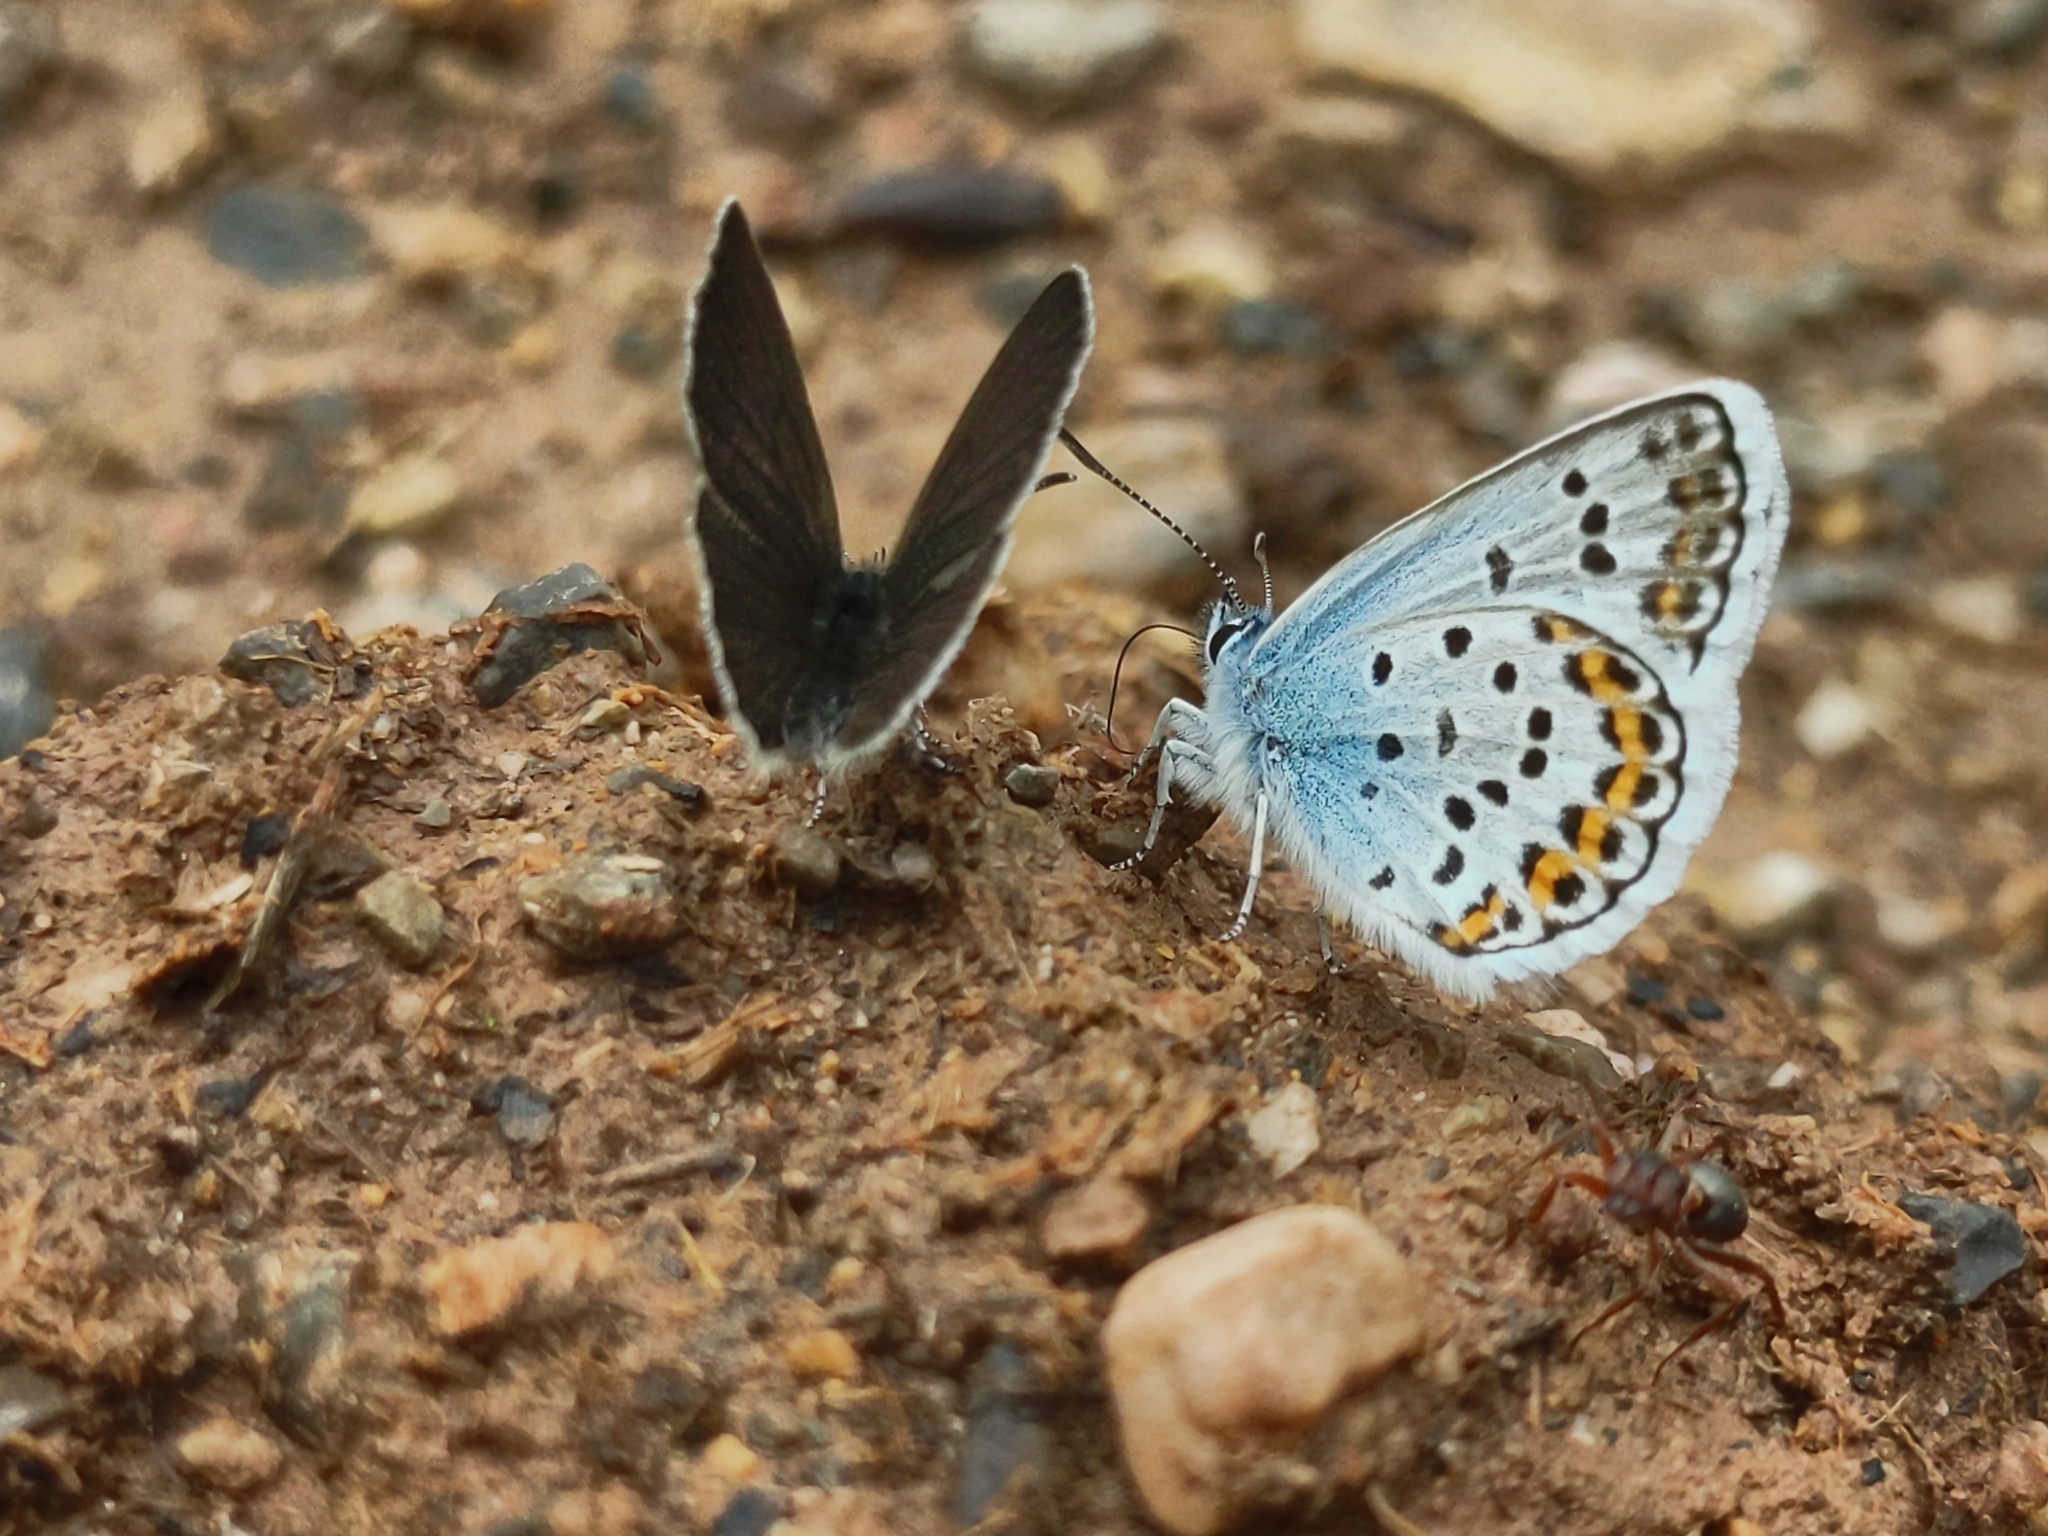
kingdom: Animalia
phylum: Arthropoda
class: Insecta
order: Lepidoptera
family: Lycaenidae
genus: Plebejus
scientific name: Plebejus argus
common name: Silver-studded blue
